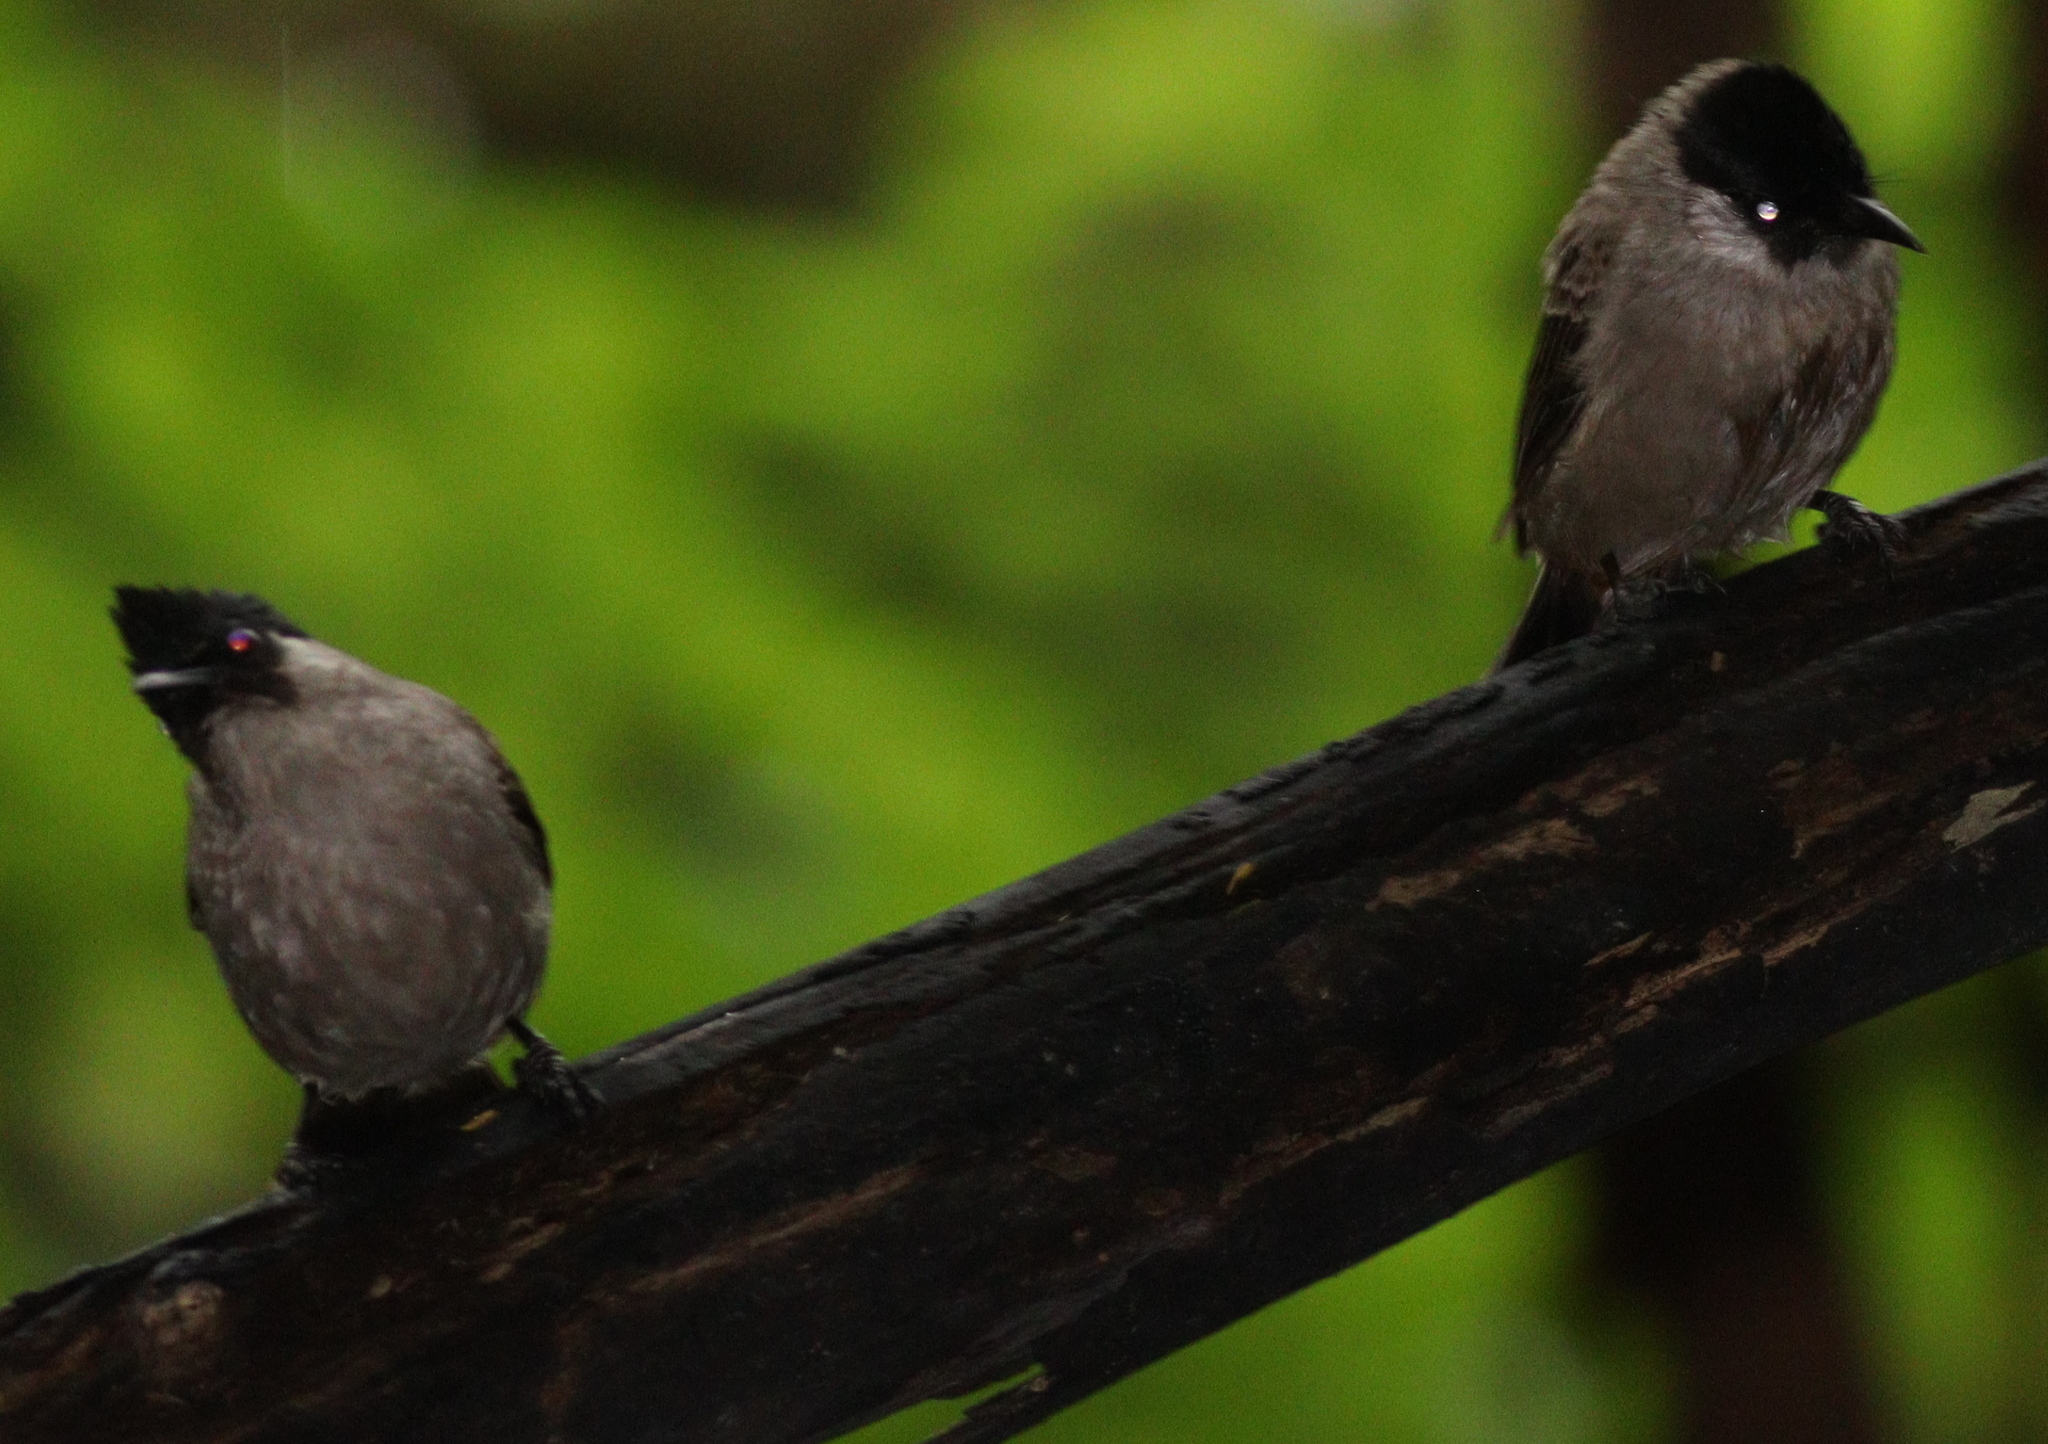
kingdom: Animalia
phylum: Chordata
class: Aves
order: Passeriformes
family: Pycnonotidae
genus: Pycnonotus
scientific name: Pycnonotus aurigaster
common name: Sooty-headed bulbul
